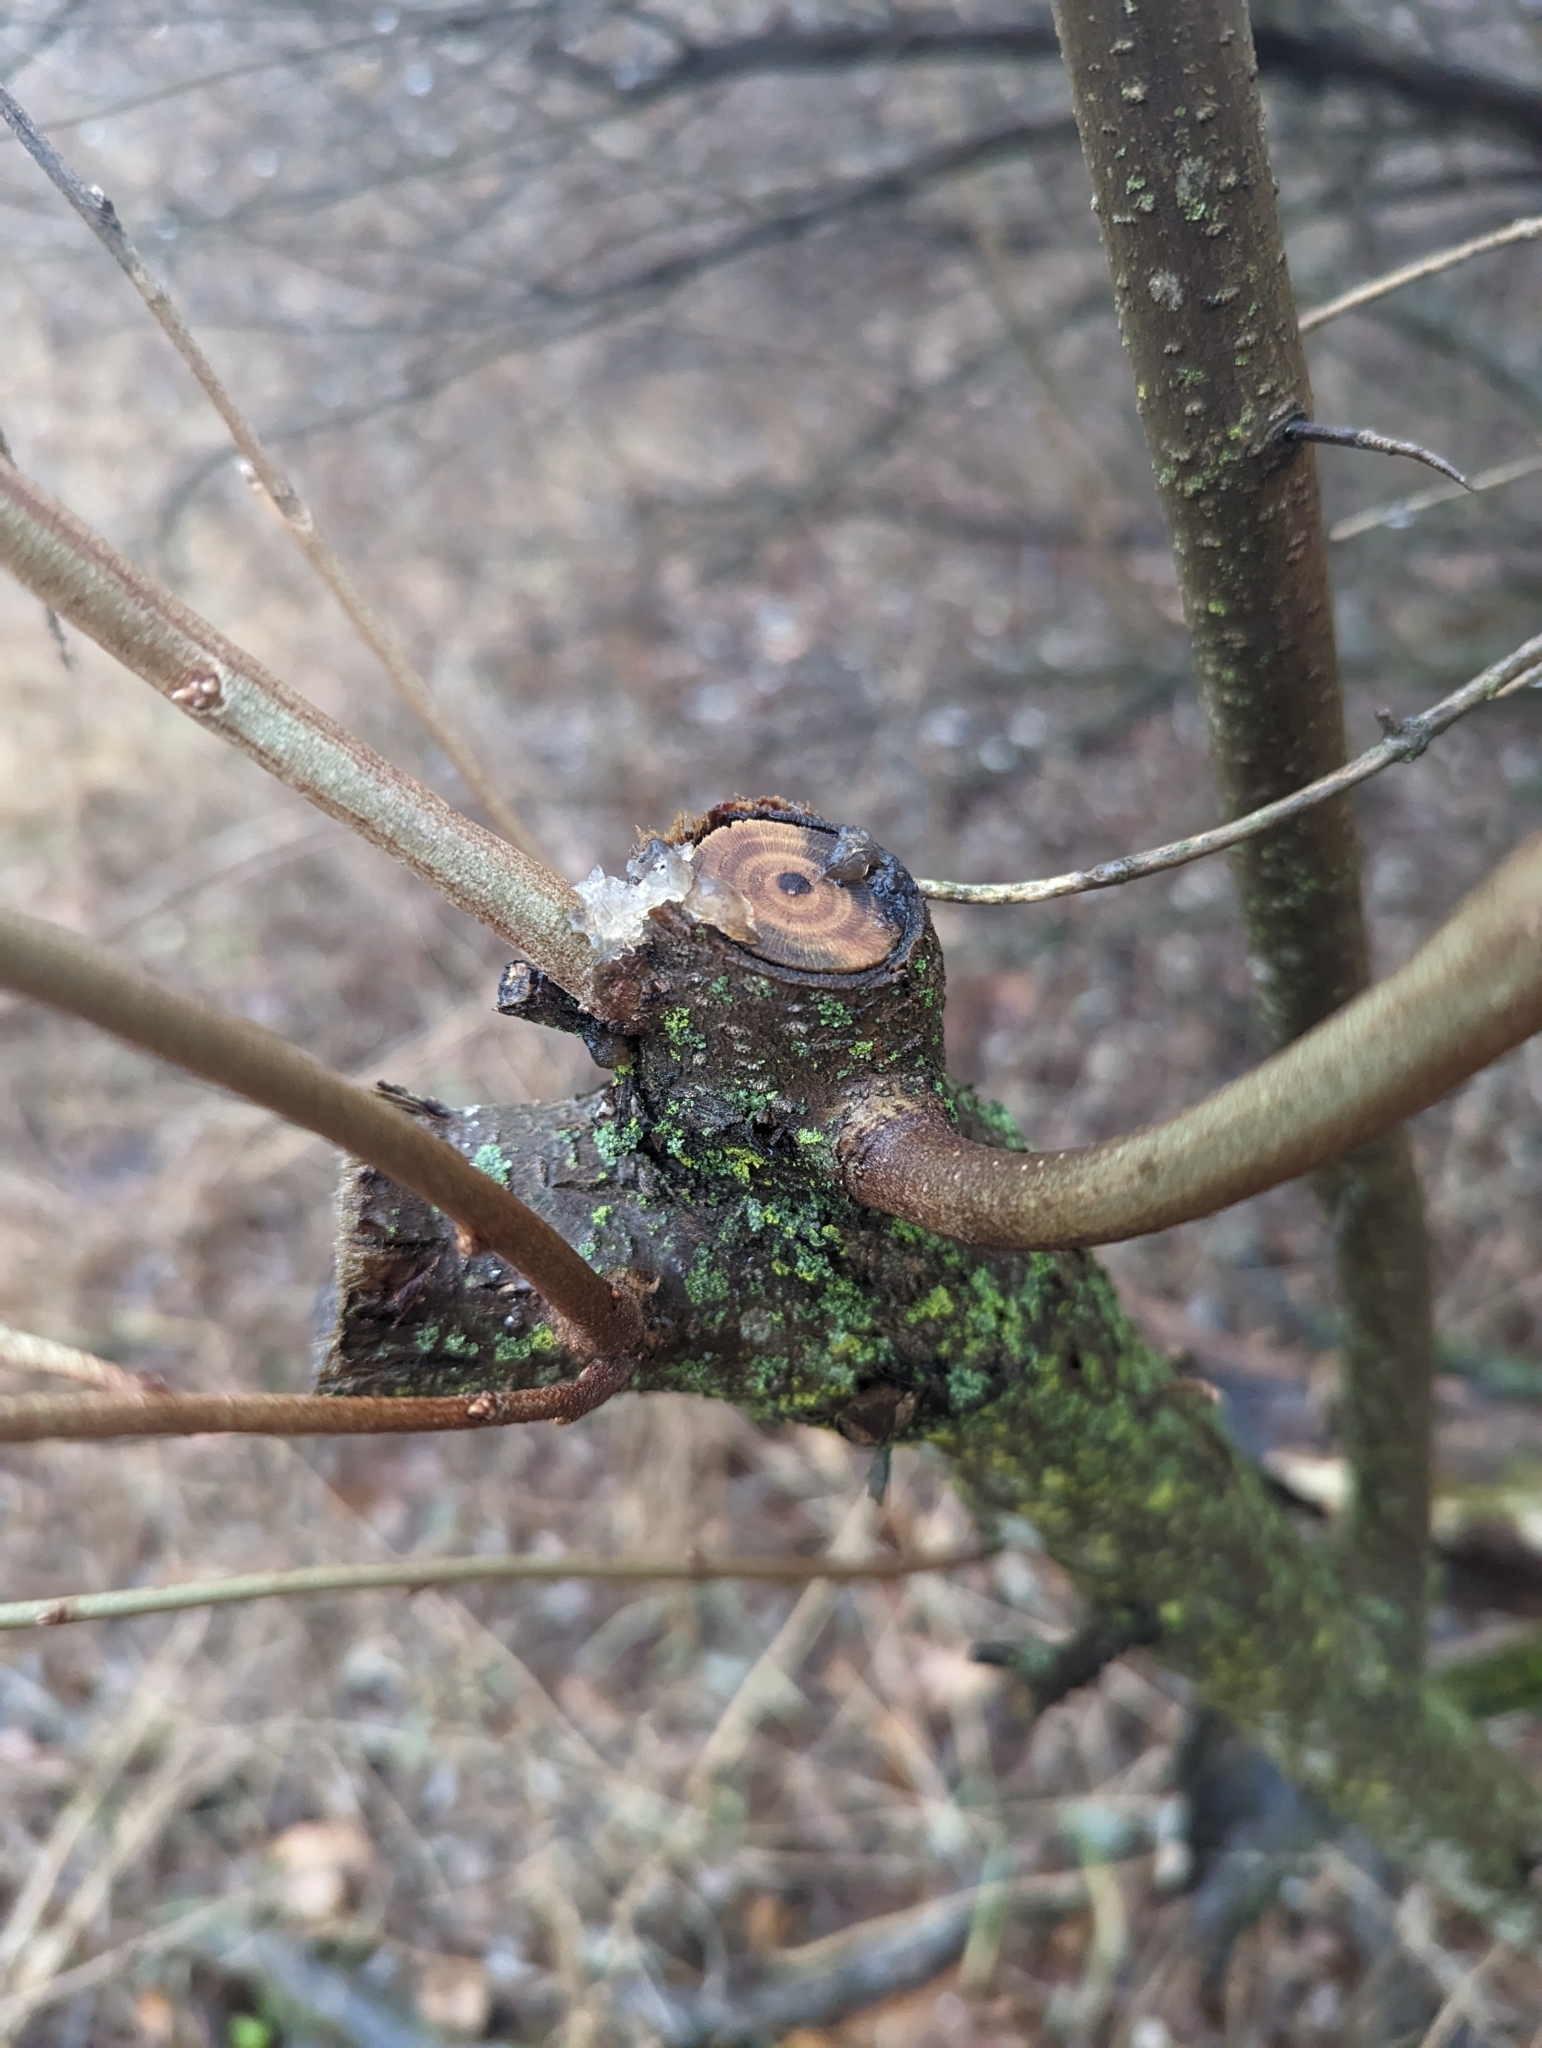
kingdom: Plantae
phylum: Tracheophyta
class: Magnoliopsida
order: Rosales
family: Elaeagnaceae
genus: Elaeagnus
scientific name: Elaeagnus umbellata
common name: Autumn olive
